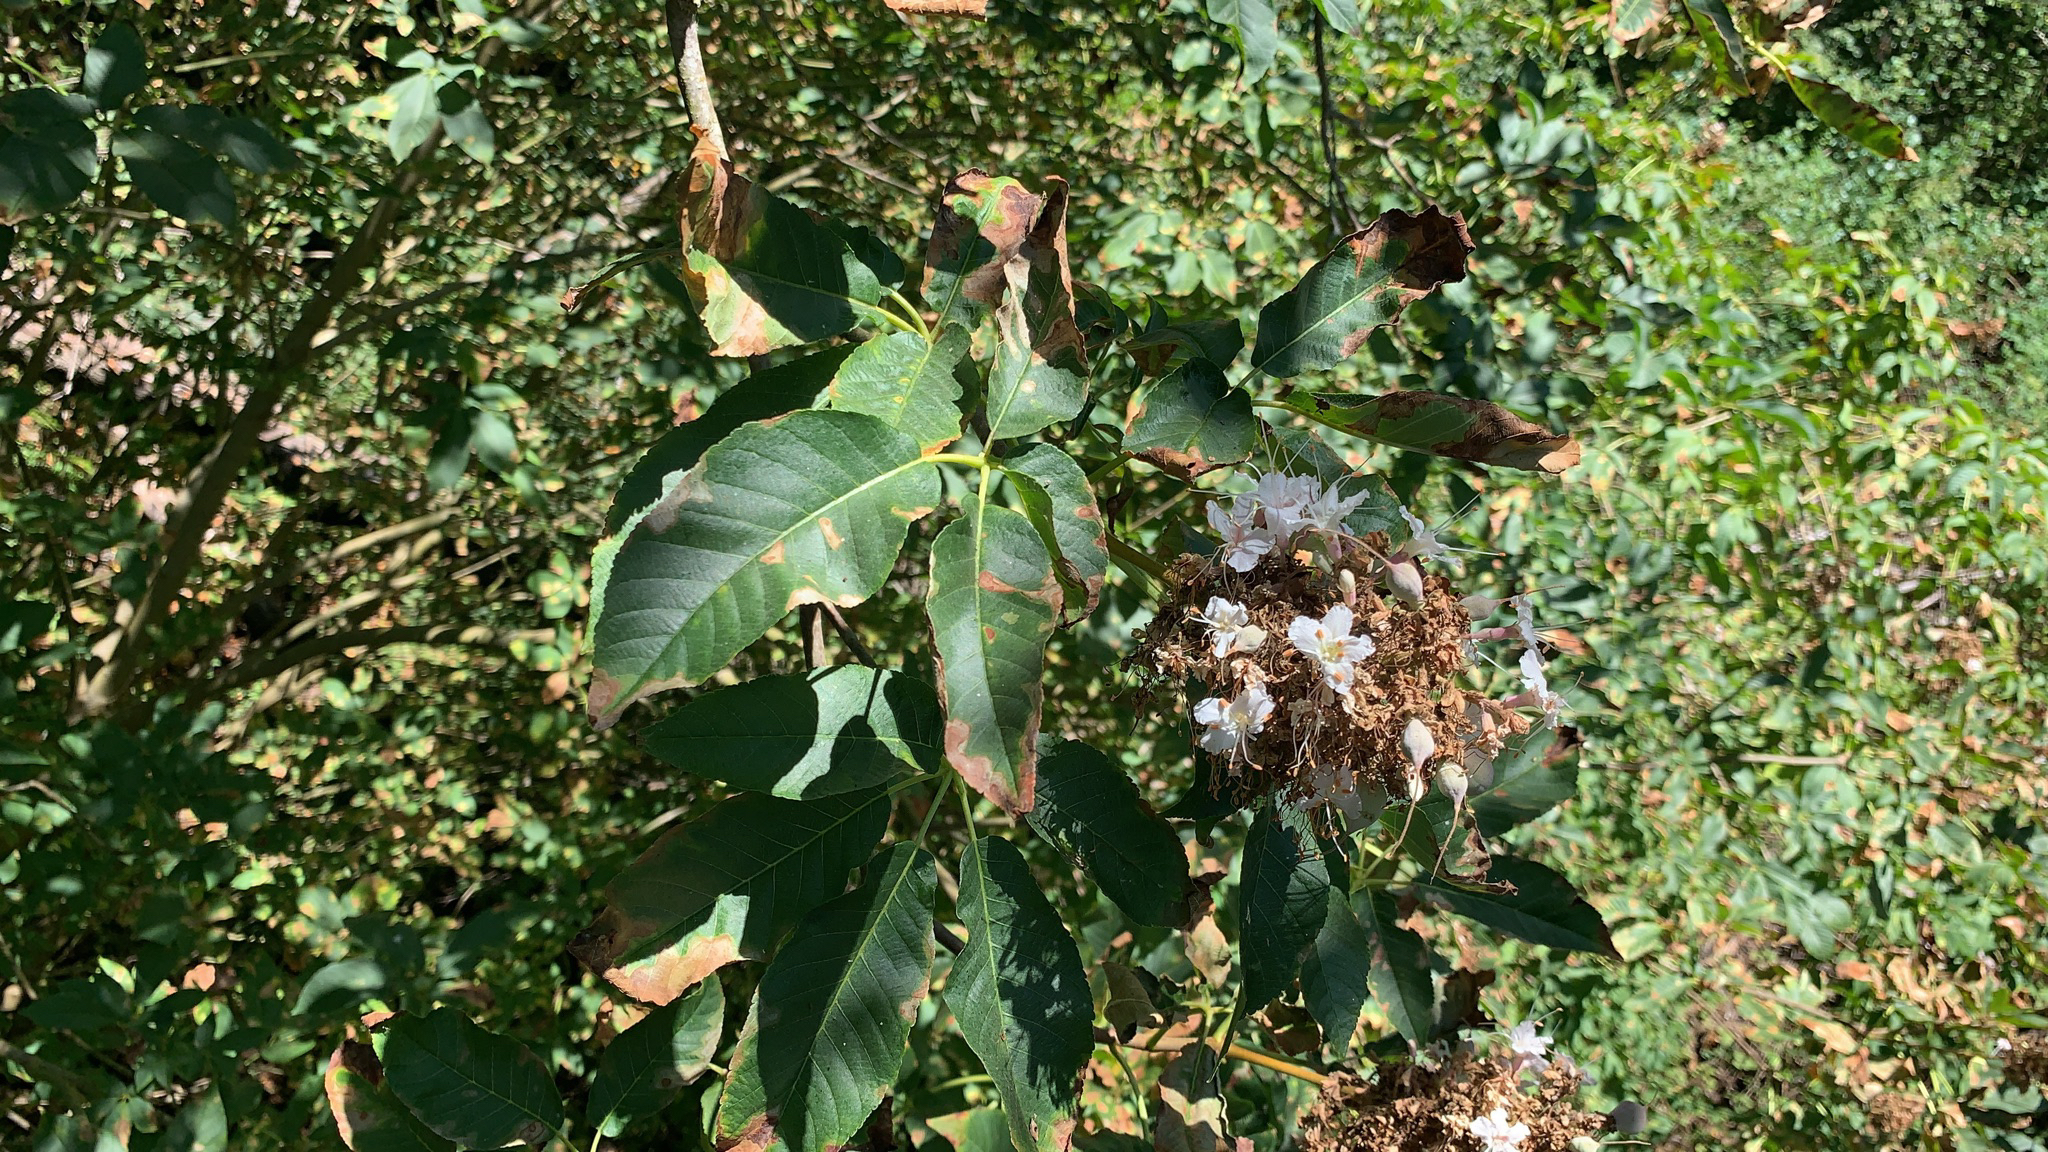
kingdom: Plantae
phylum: Tracheophyta
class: Magnoliopsida
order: Sapindales
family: Sapindaceae
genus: Aesculus
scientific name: Aesculus californica
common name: California buckeye
